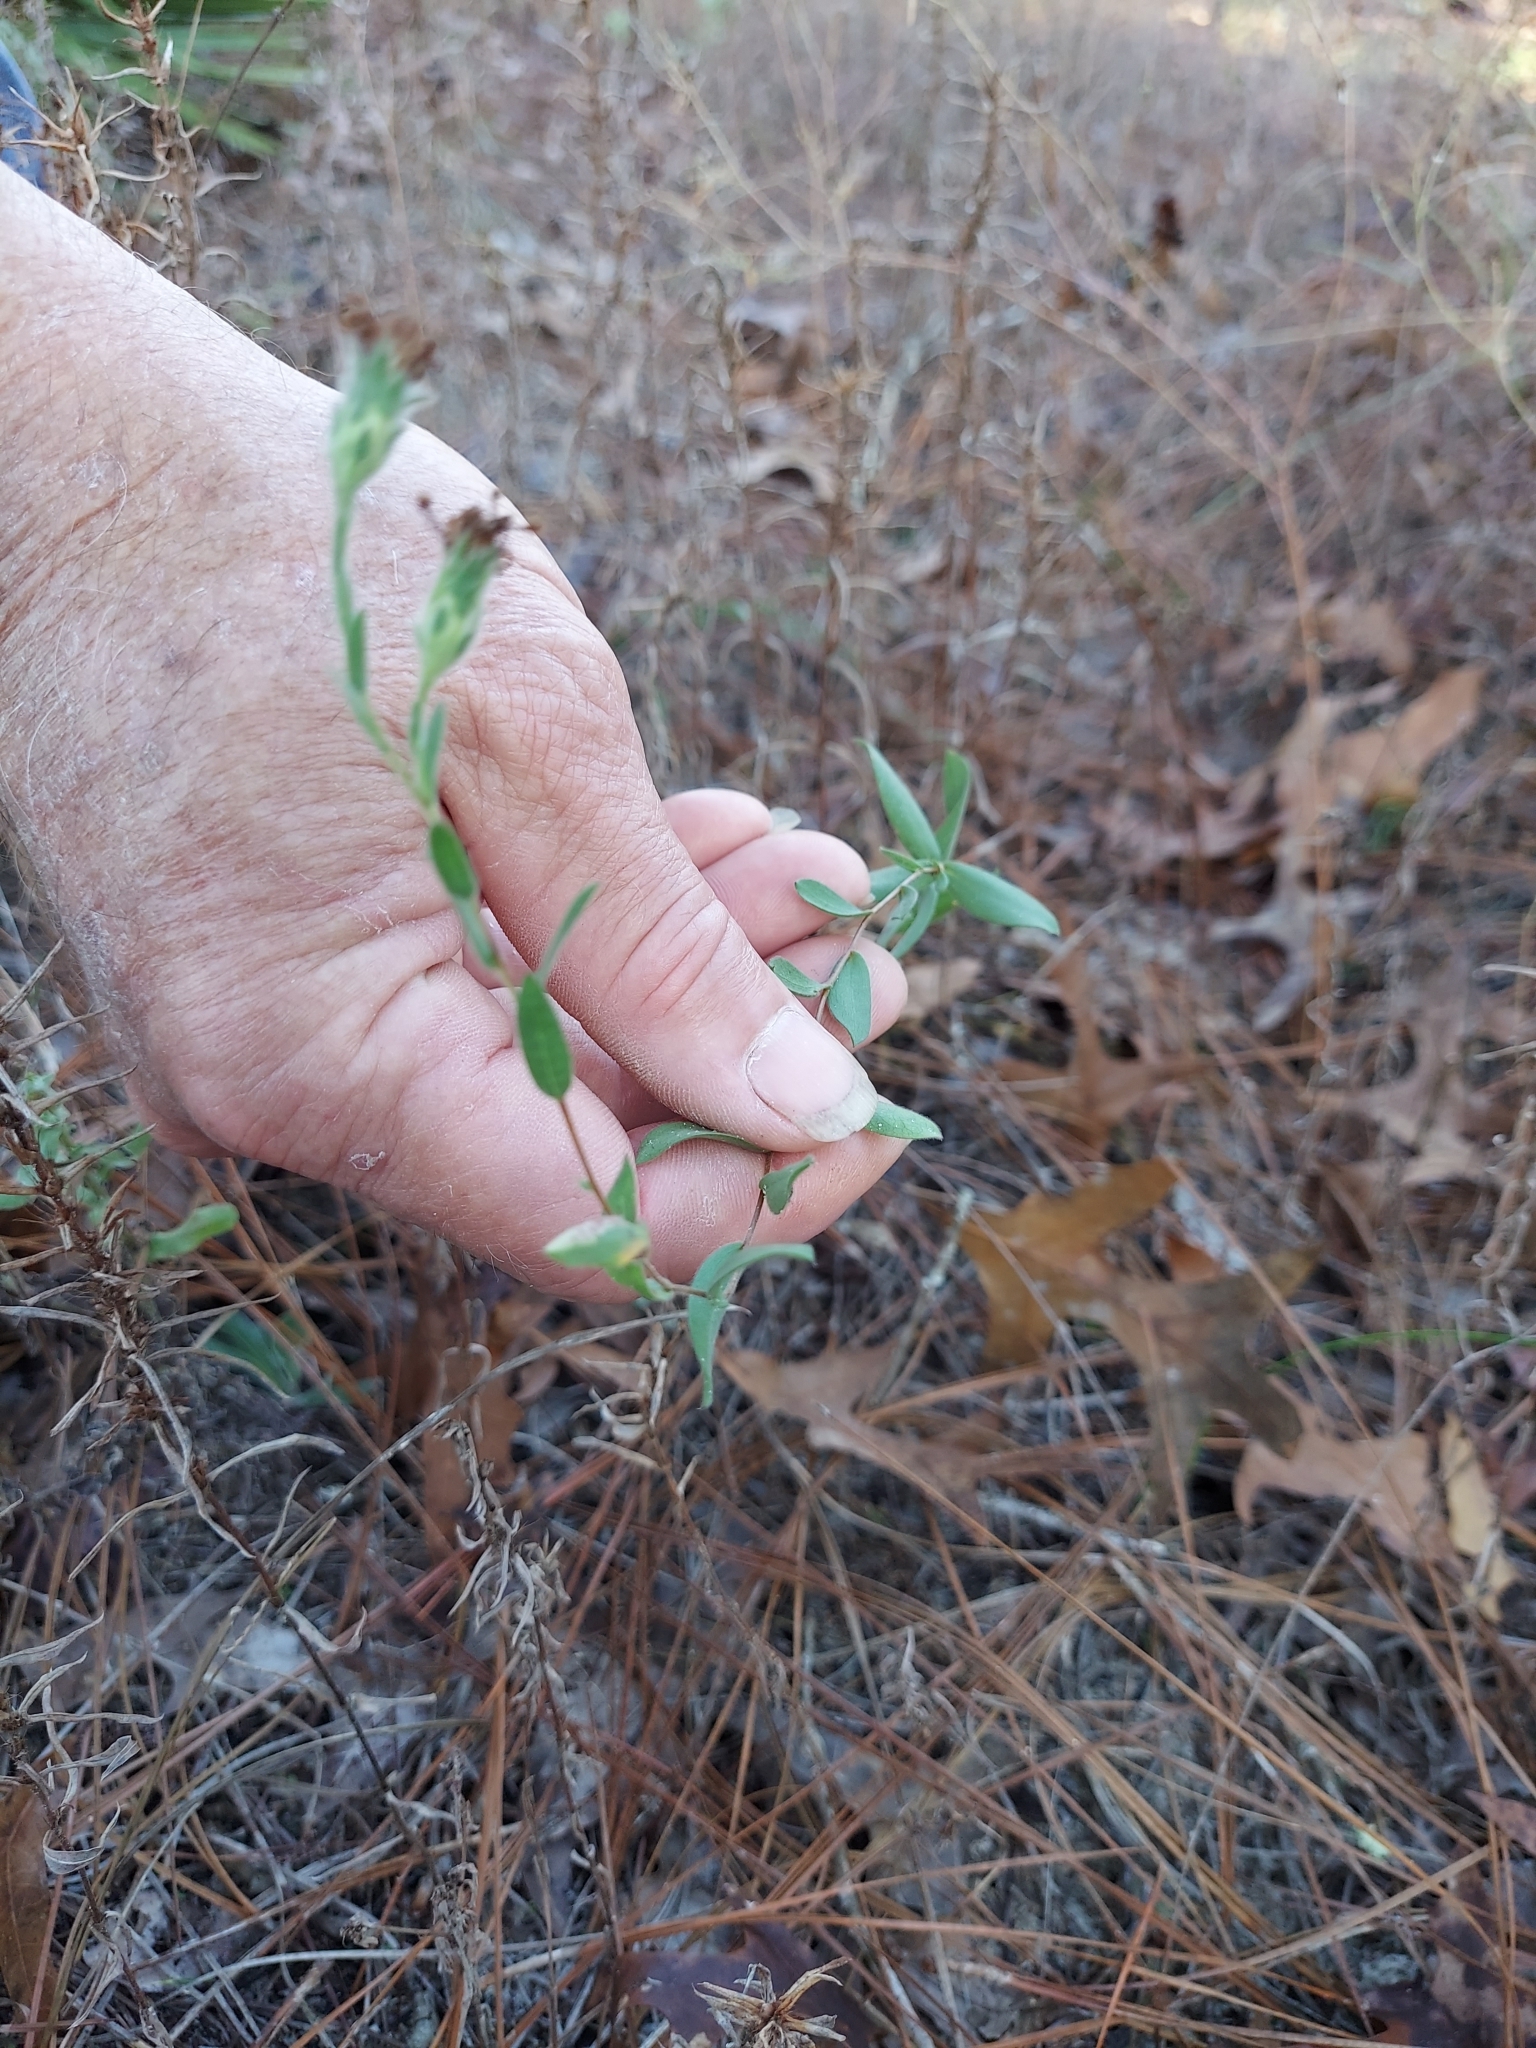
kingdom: Plantae
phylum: Tracheophyta
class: Magnoliopsida
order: Asterales
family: Asteraceae
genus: Symphyotrichum
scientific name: Symphyotrichum concolor
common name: Eastern silver aster
